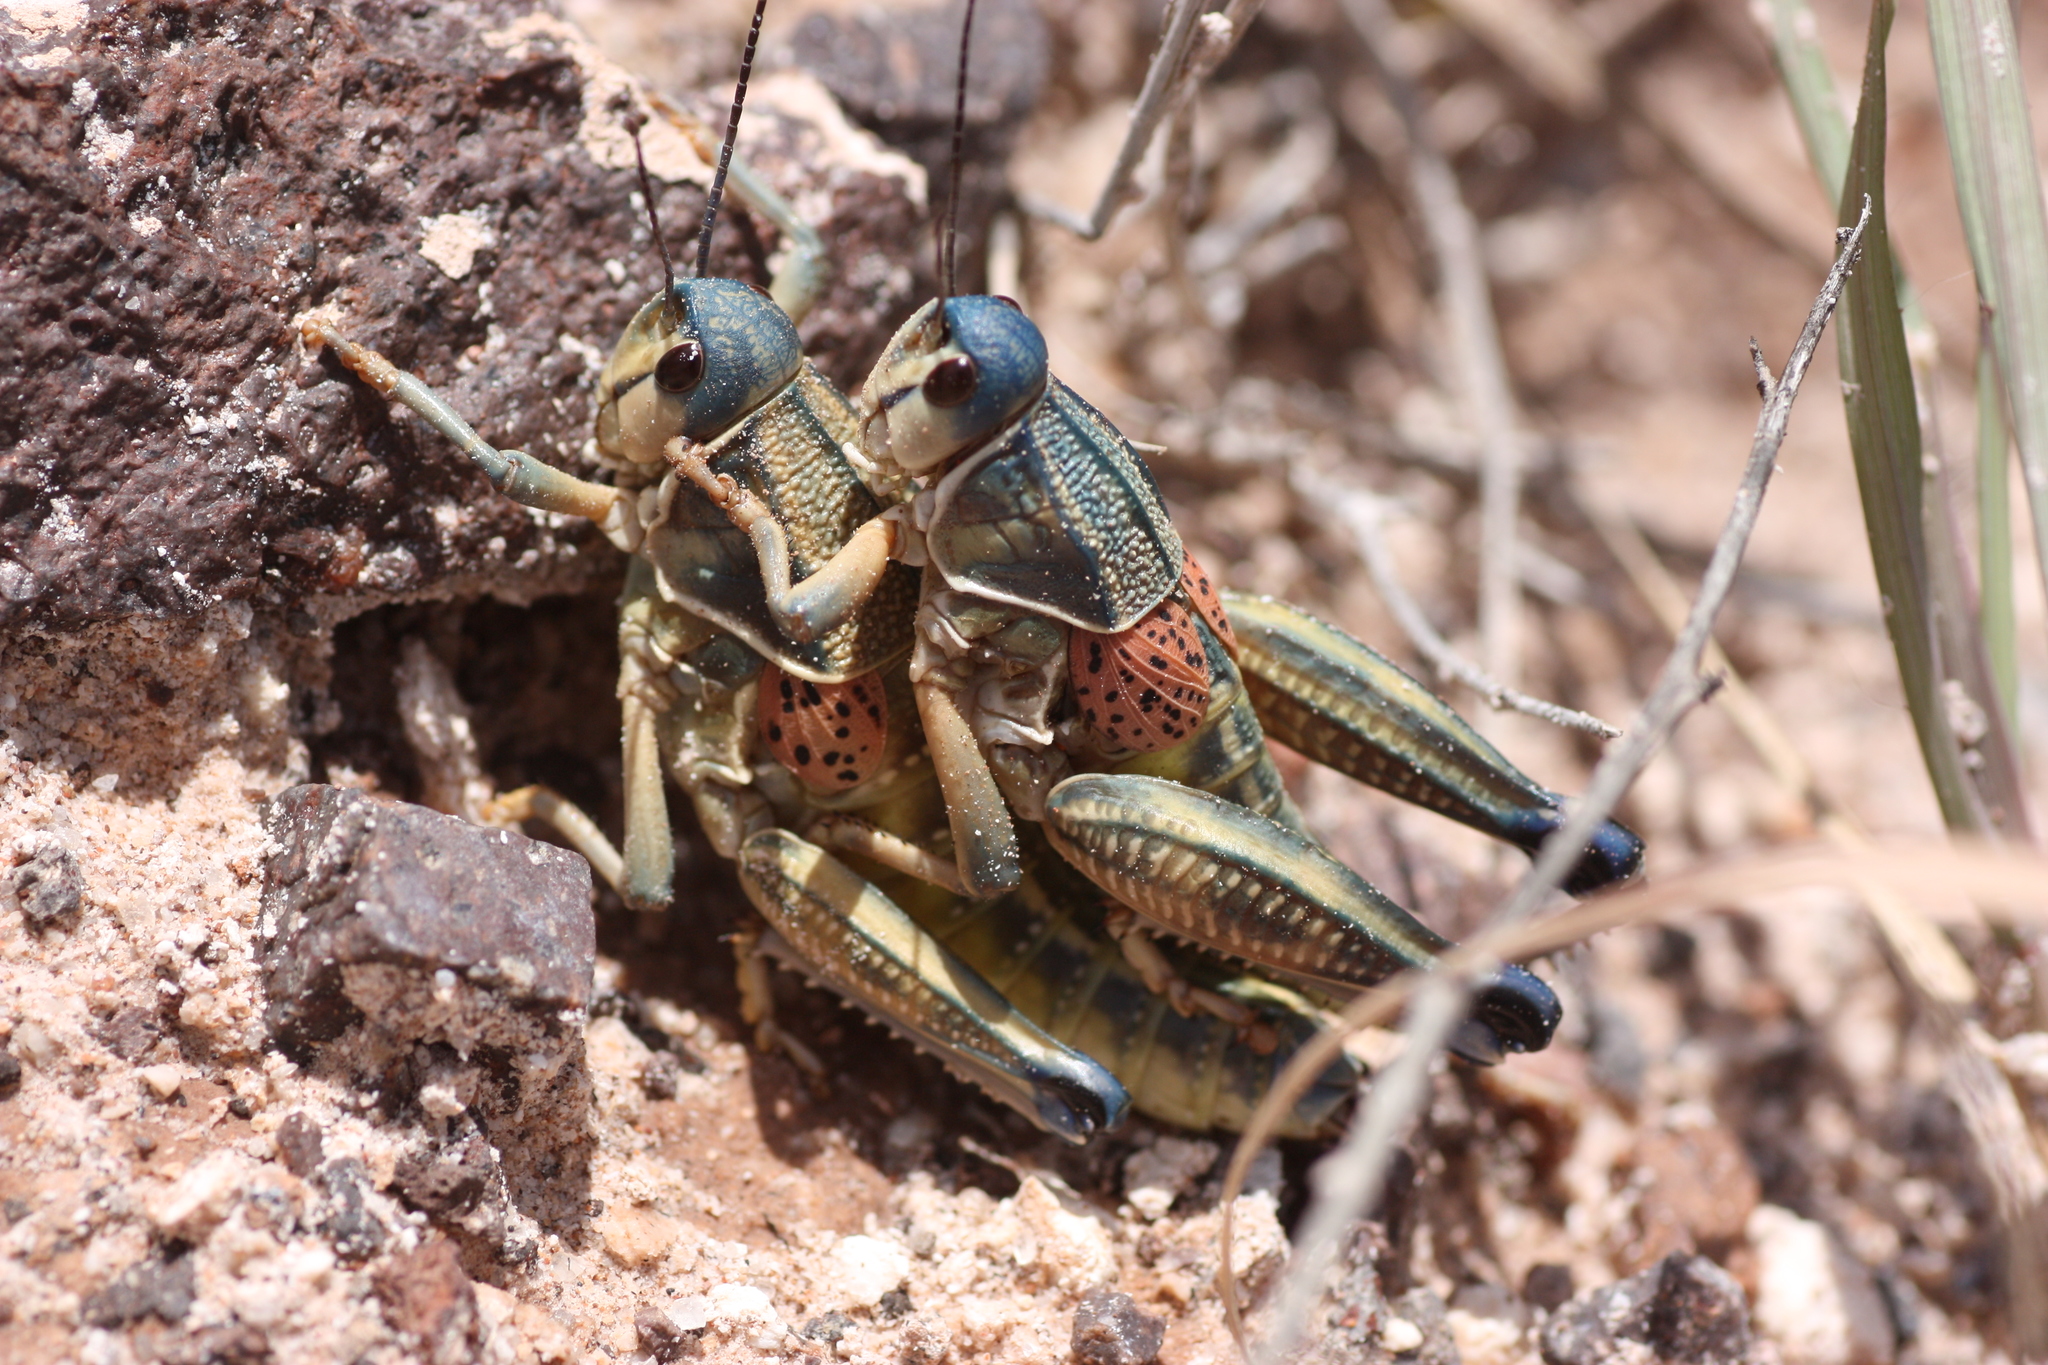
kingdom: Animalia
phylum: Arthropoda
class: Insecta
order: Orthoptera
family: Romaleidae
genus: Brachystola
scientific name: Brachystola magna
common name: Plains lubber grasshopper
